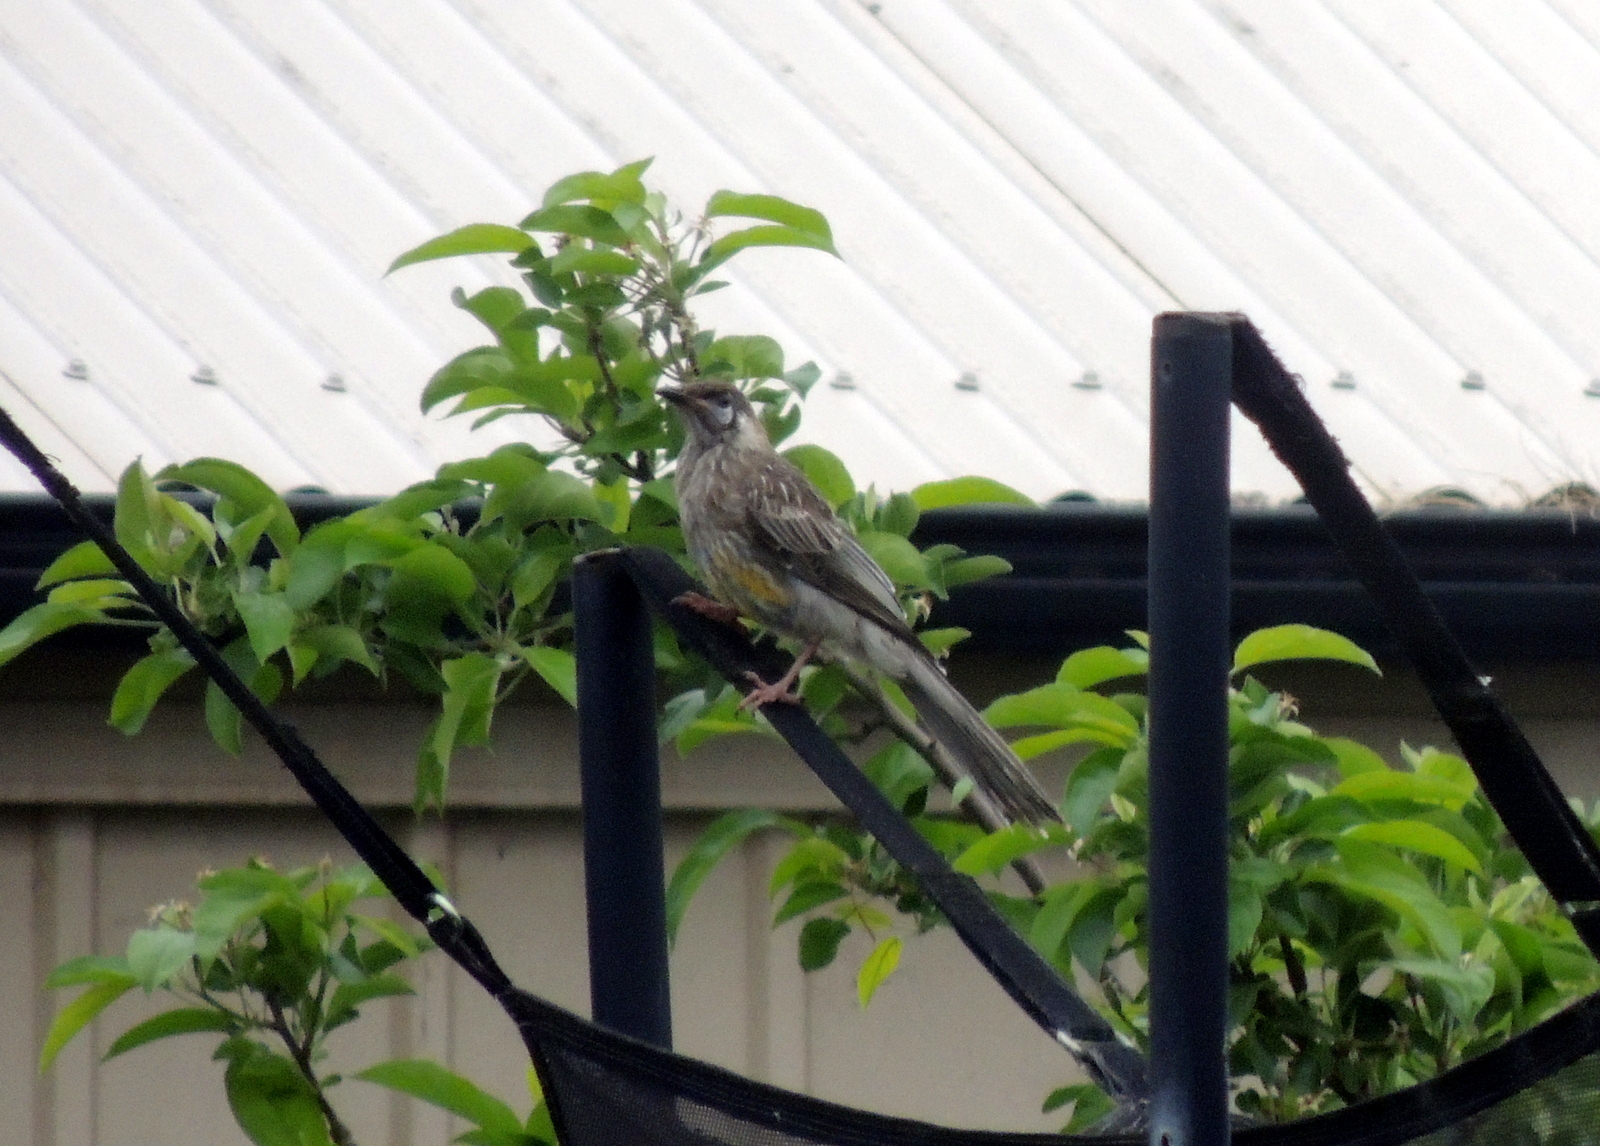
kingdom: Animalia
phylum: Chordata
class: Aves
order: Passeriformes
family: Meliphagidae
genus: Anthochaera
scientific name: Anthochaera carunculata
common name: Red wattlebird
